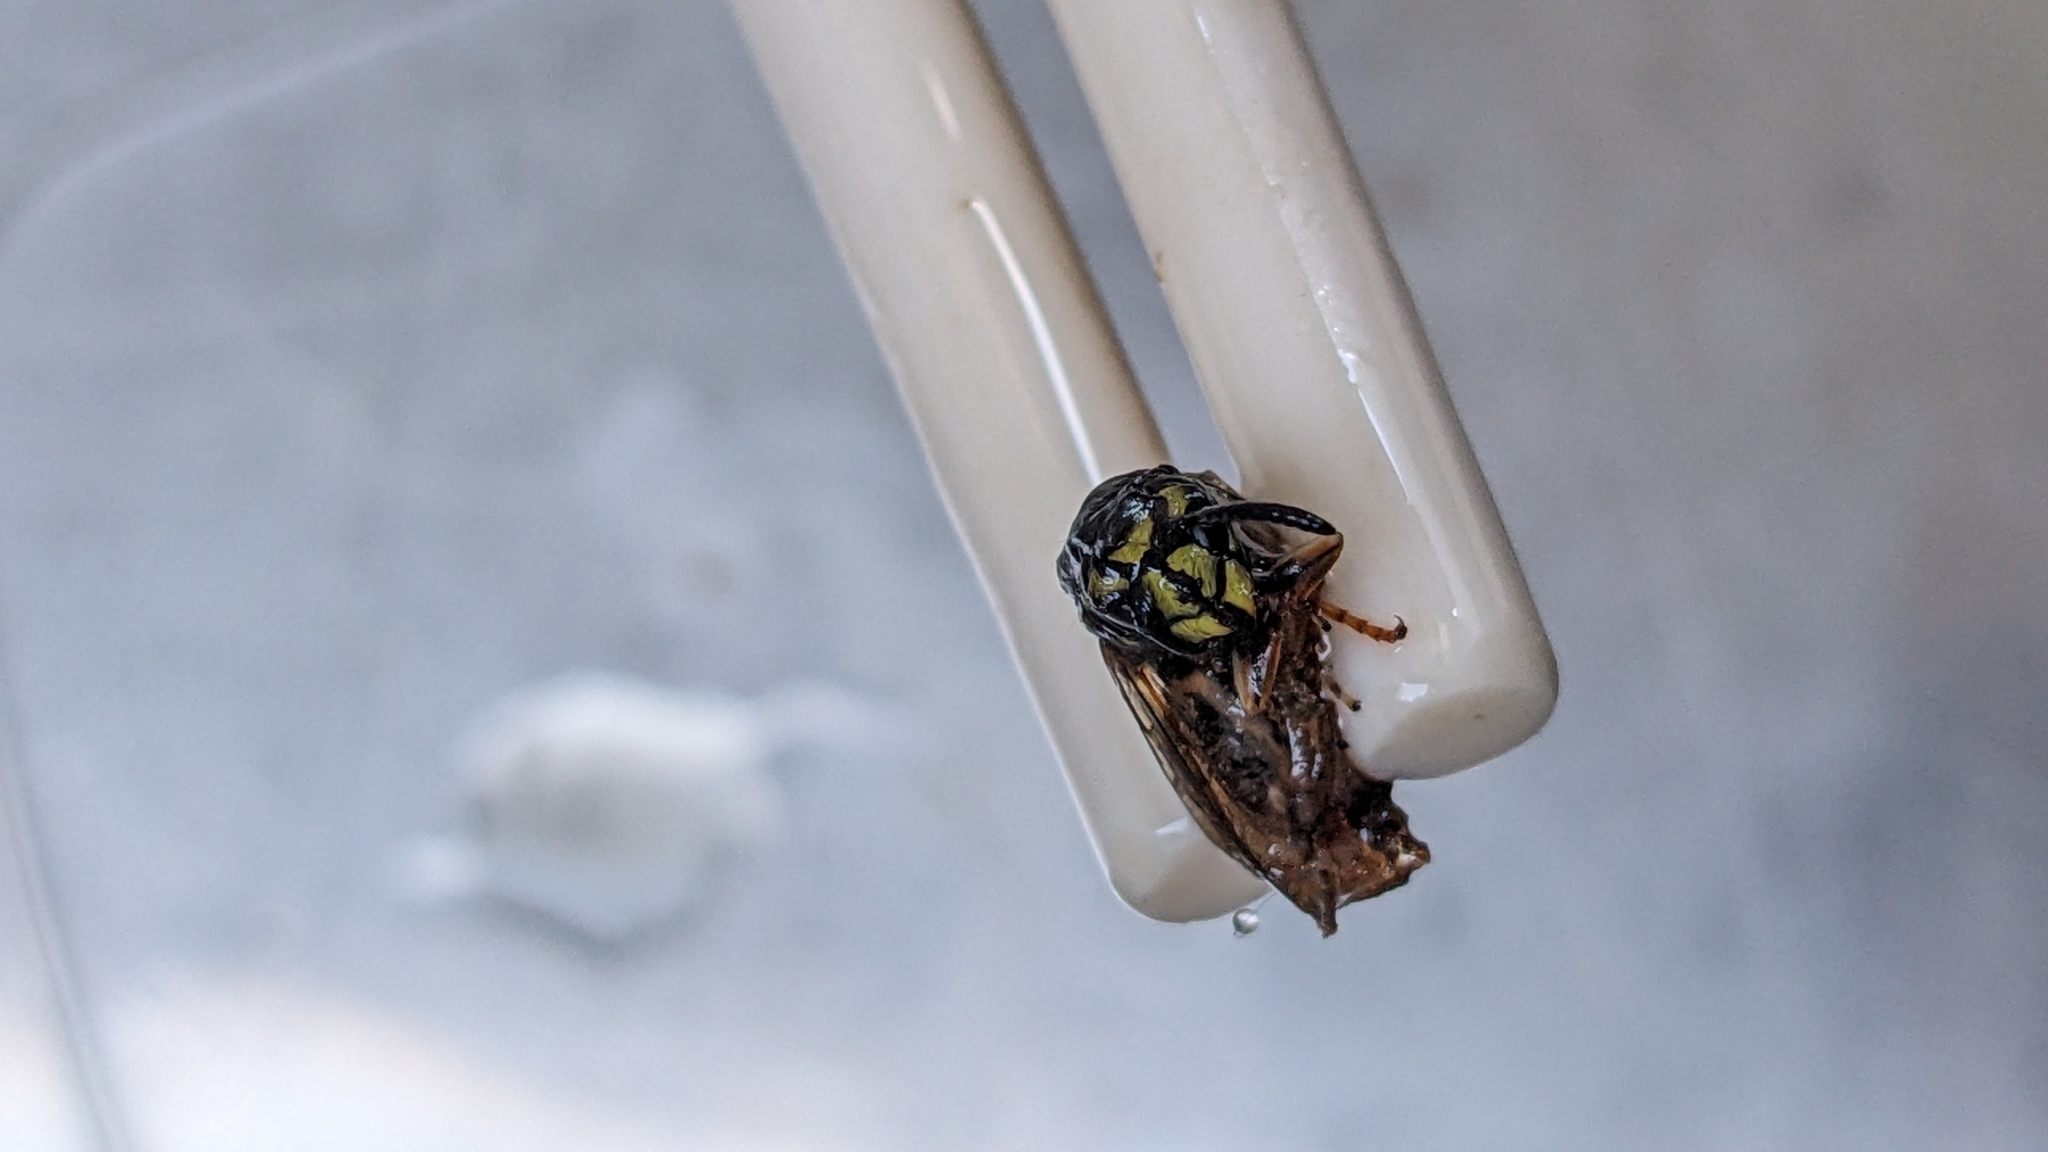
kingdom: Animalia
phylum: Arthropoda
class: Insecta
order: Hymenoptera
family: Vespidae
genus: Vespula
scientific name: Vespula vulgaris
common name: Common wasp
